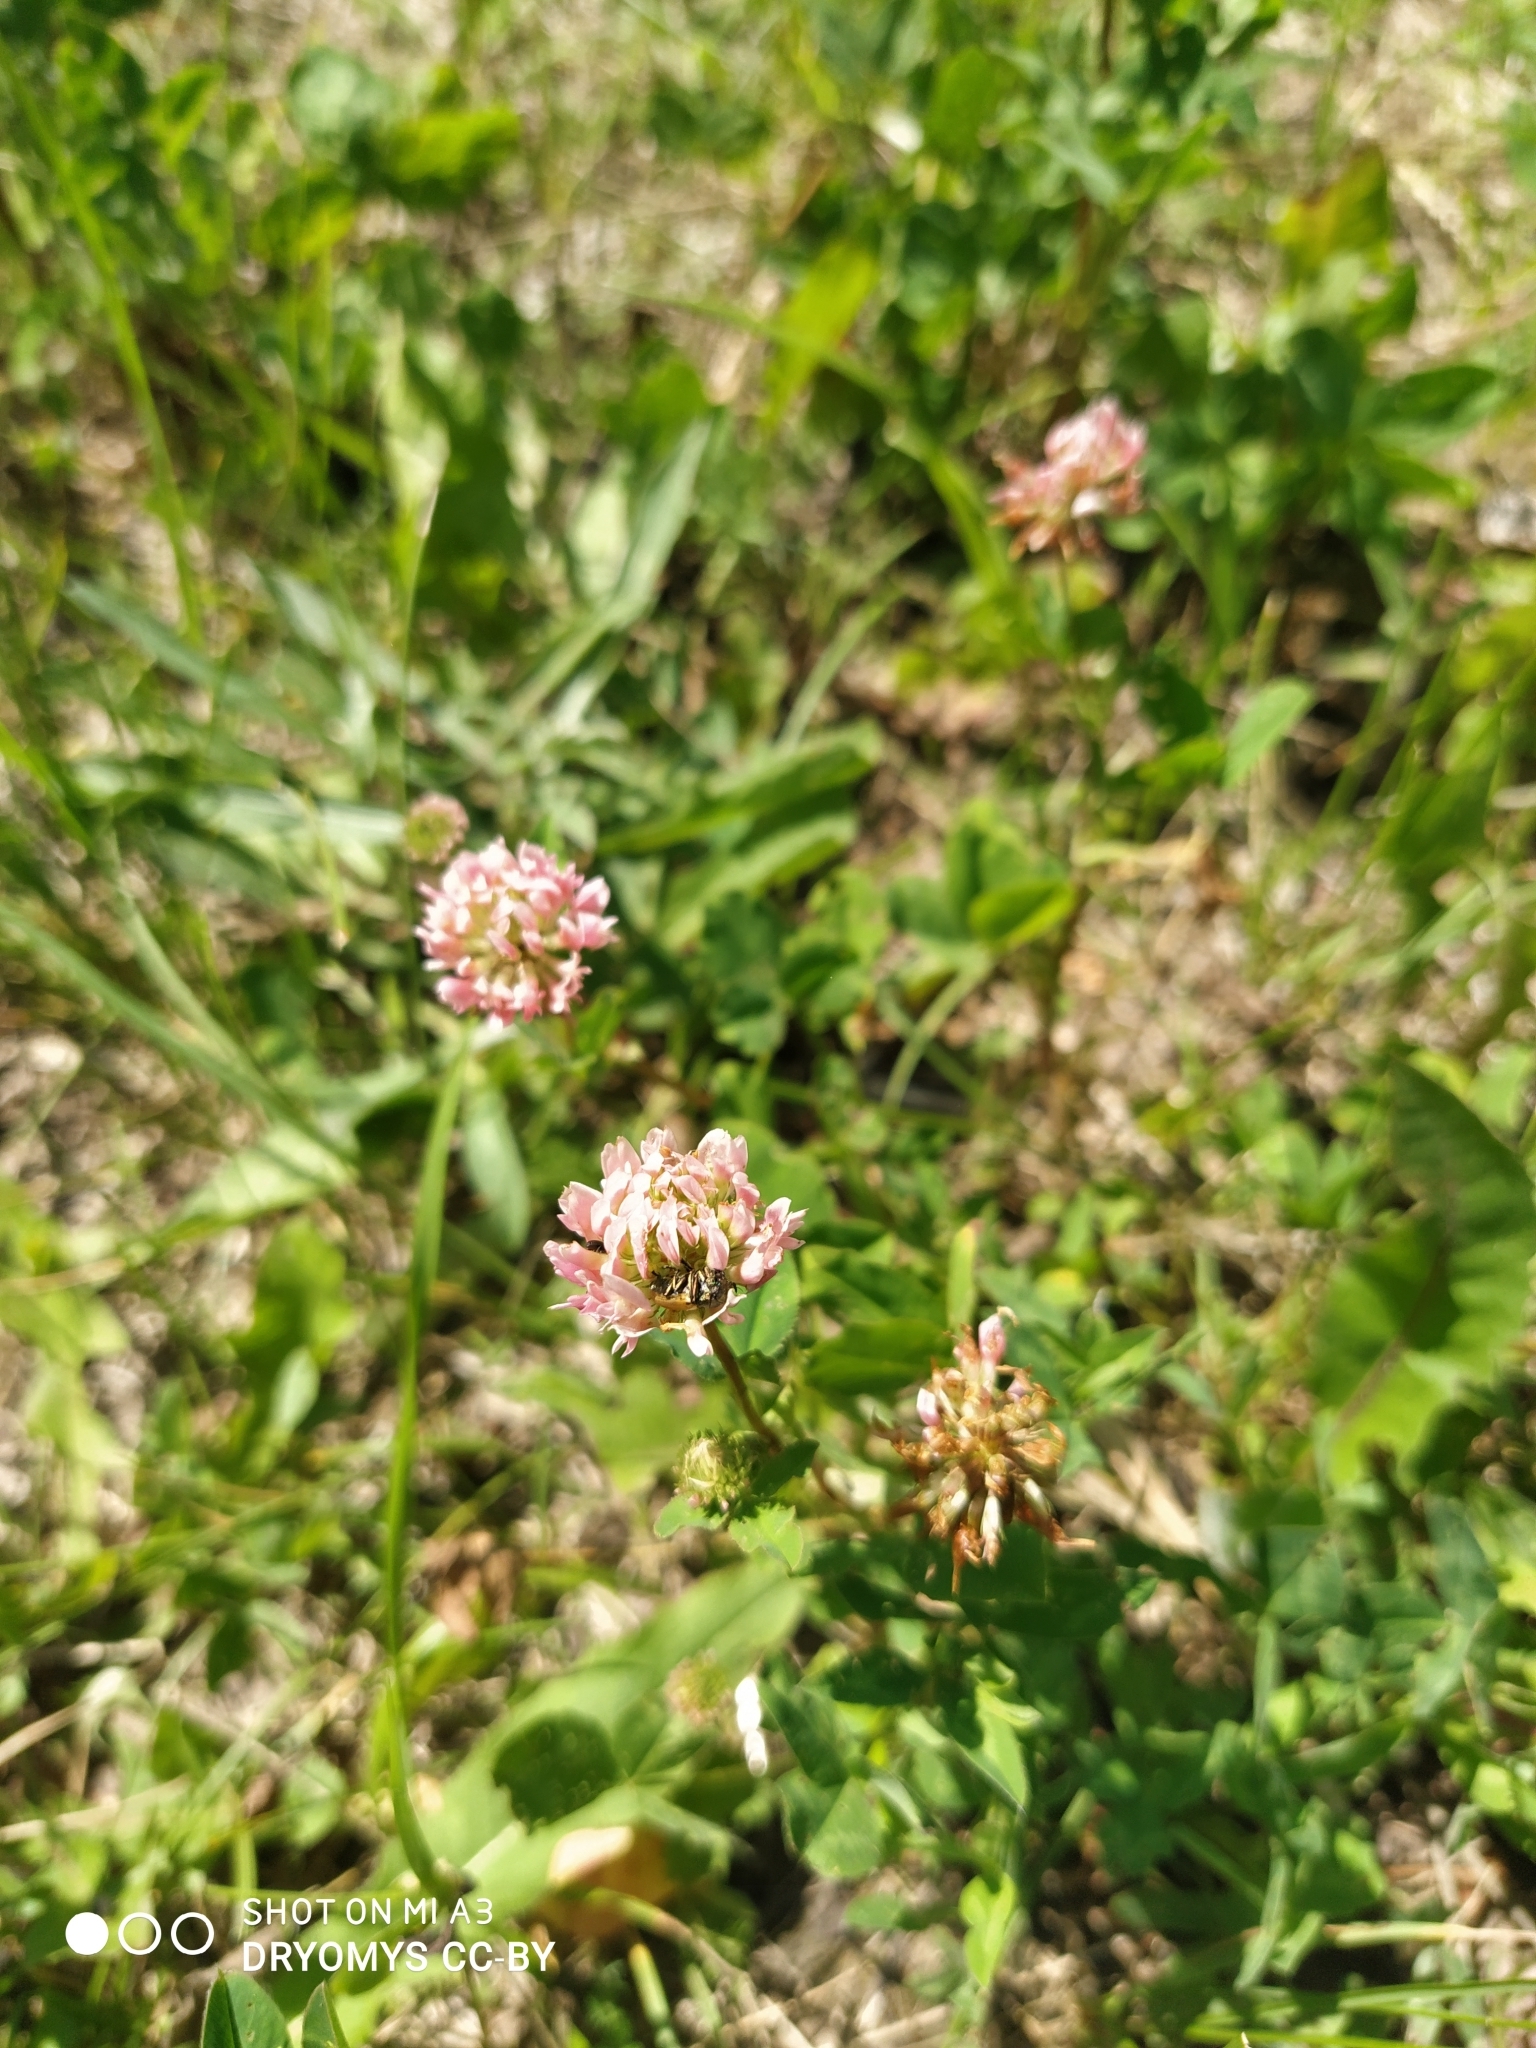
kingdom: Plantae
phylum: Tracheophyta
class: Magnoliopsida
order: Fabales
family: Fabaceae
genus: Trifolium
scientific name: Trifolium hybridum
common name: Alsike clover
